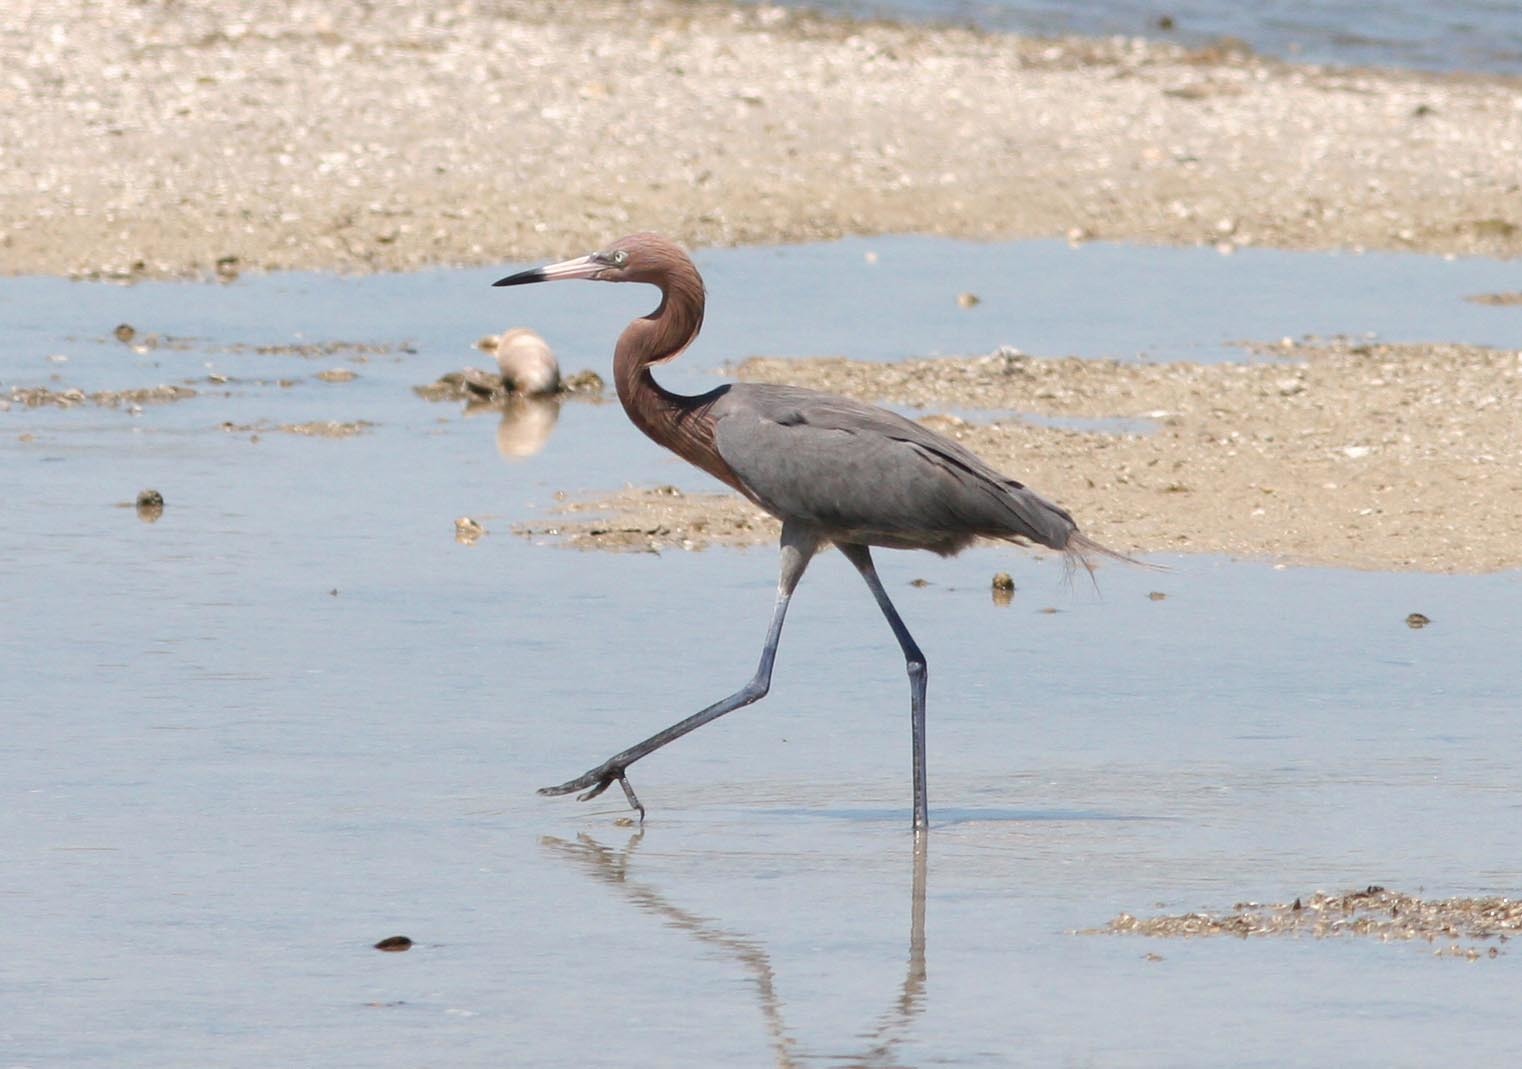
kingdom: Animalia
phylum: Chordata
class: Aves
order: Pelecaniformes
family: Ardeidae
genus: Egretta
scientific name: Egretta rufescens
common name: Reddish egret
